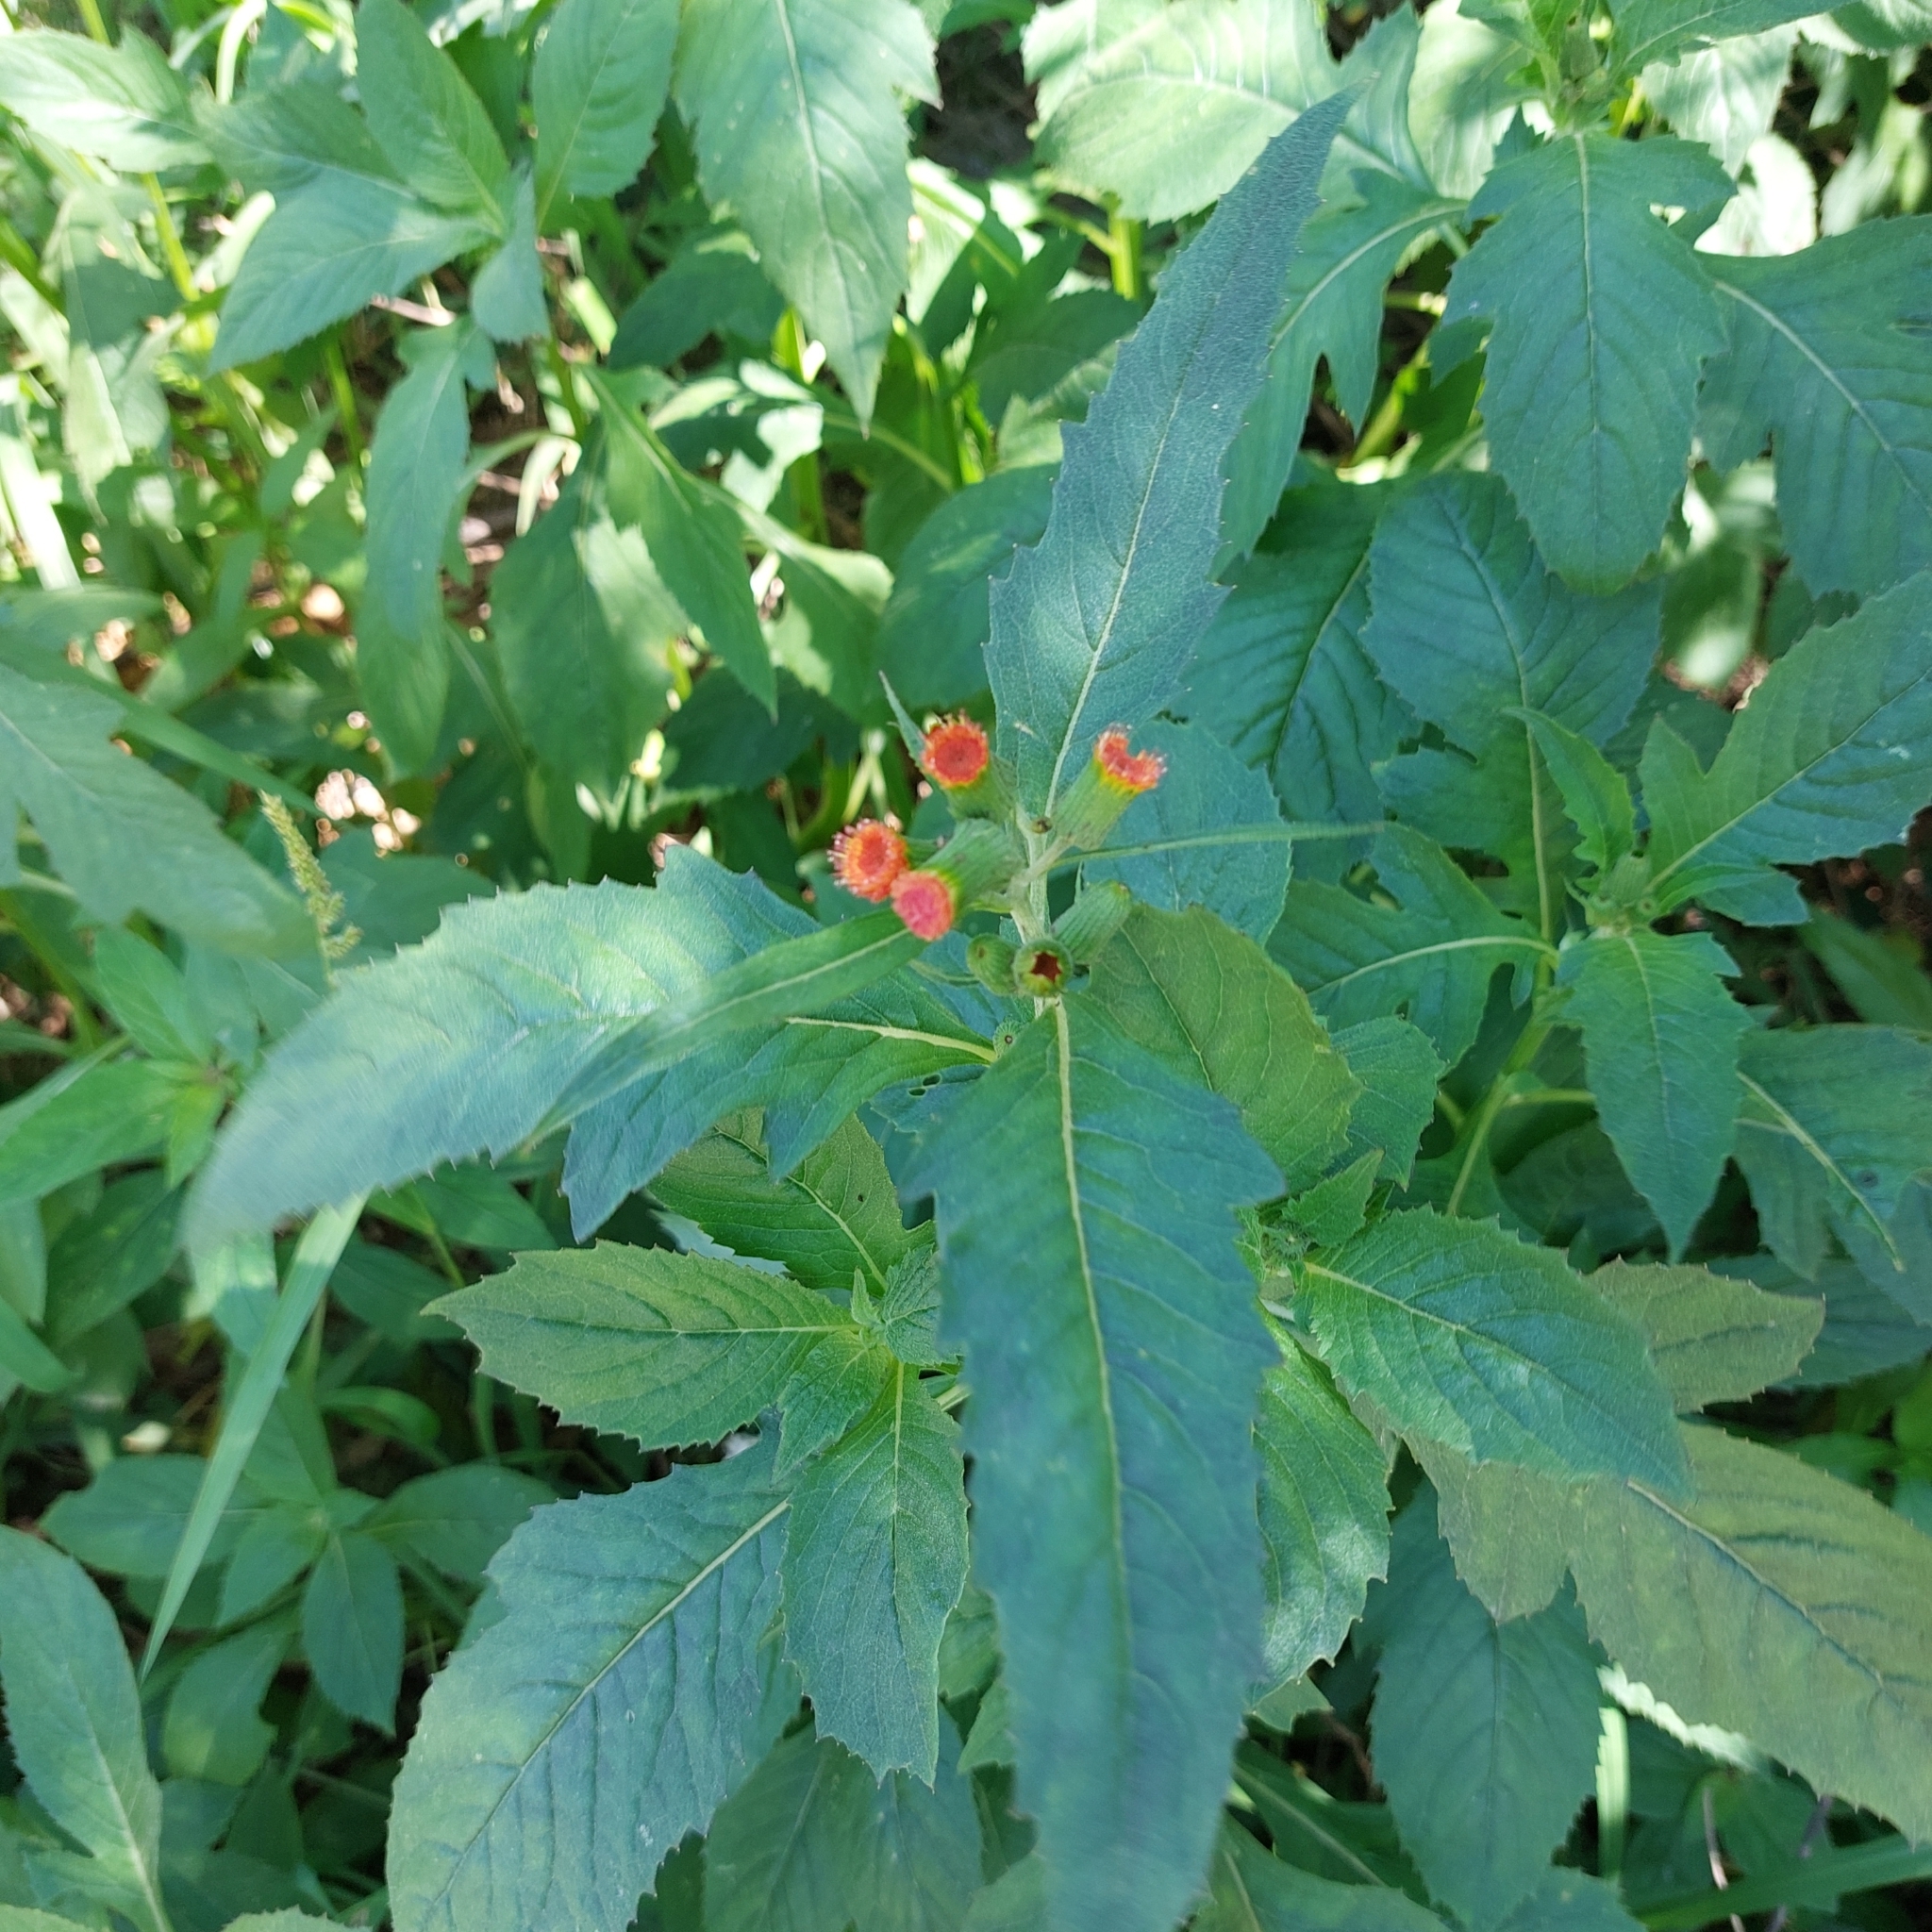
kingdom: Plantae
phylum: Tracheophyta
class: Magnoliopsida
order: Asterales
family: Asteraceae
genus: Crassocephalum
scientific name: Crassocephalum crepidioides
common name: Redflower ragleaf
